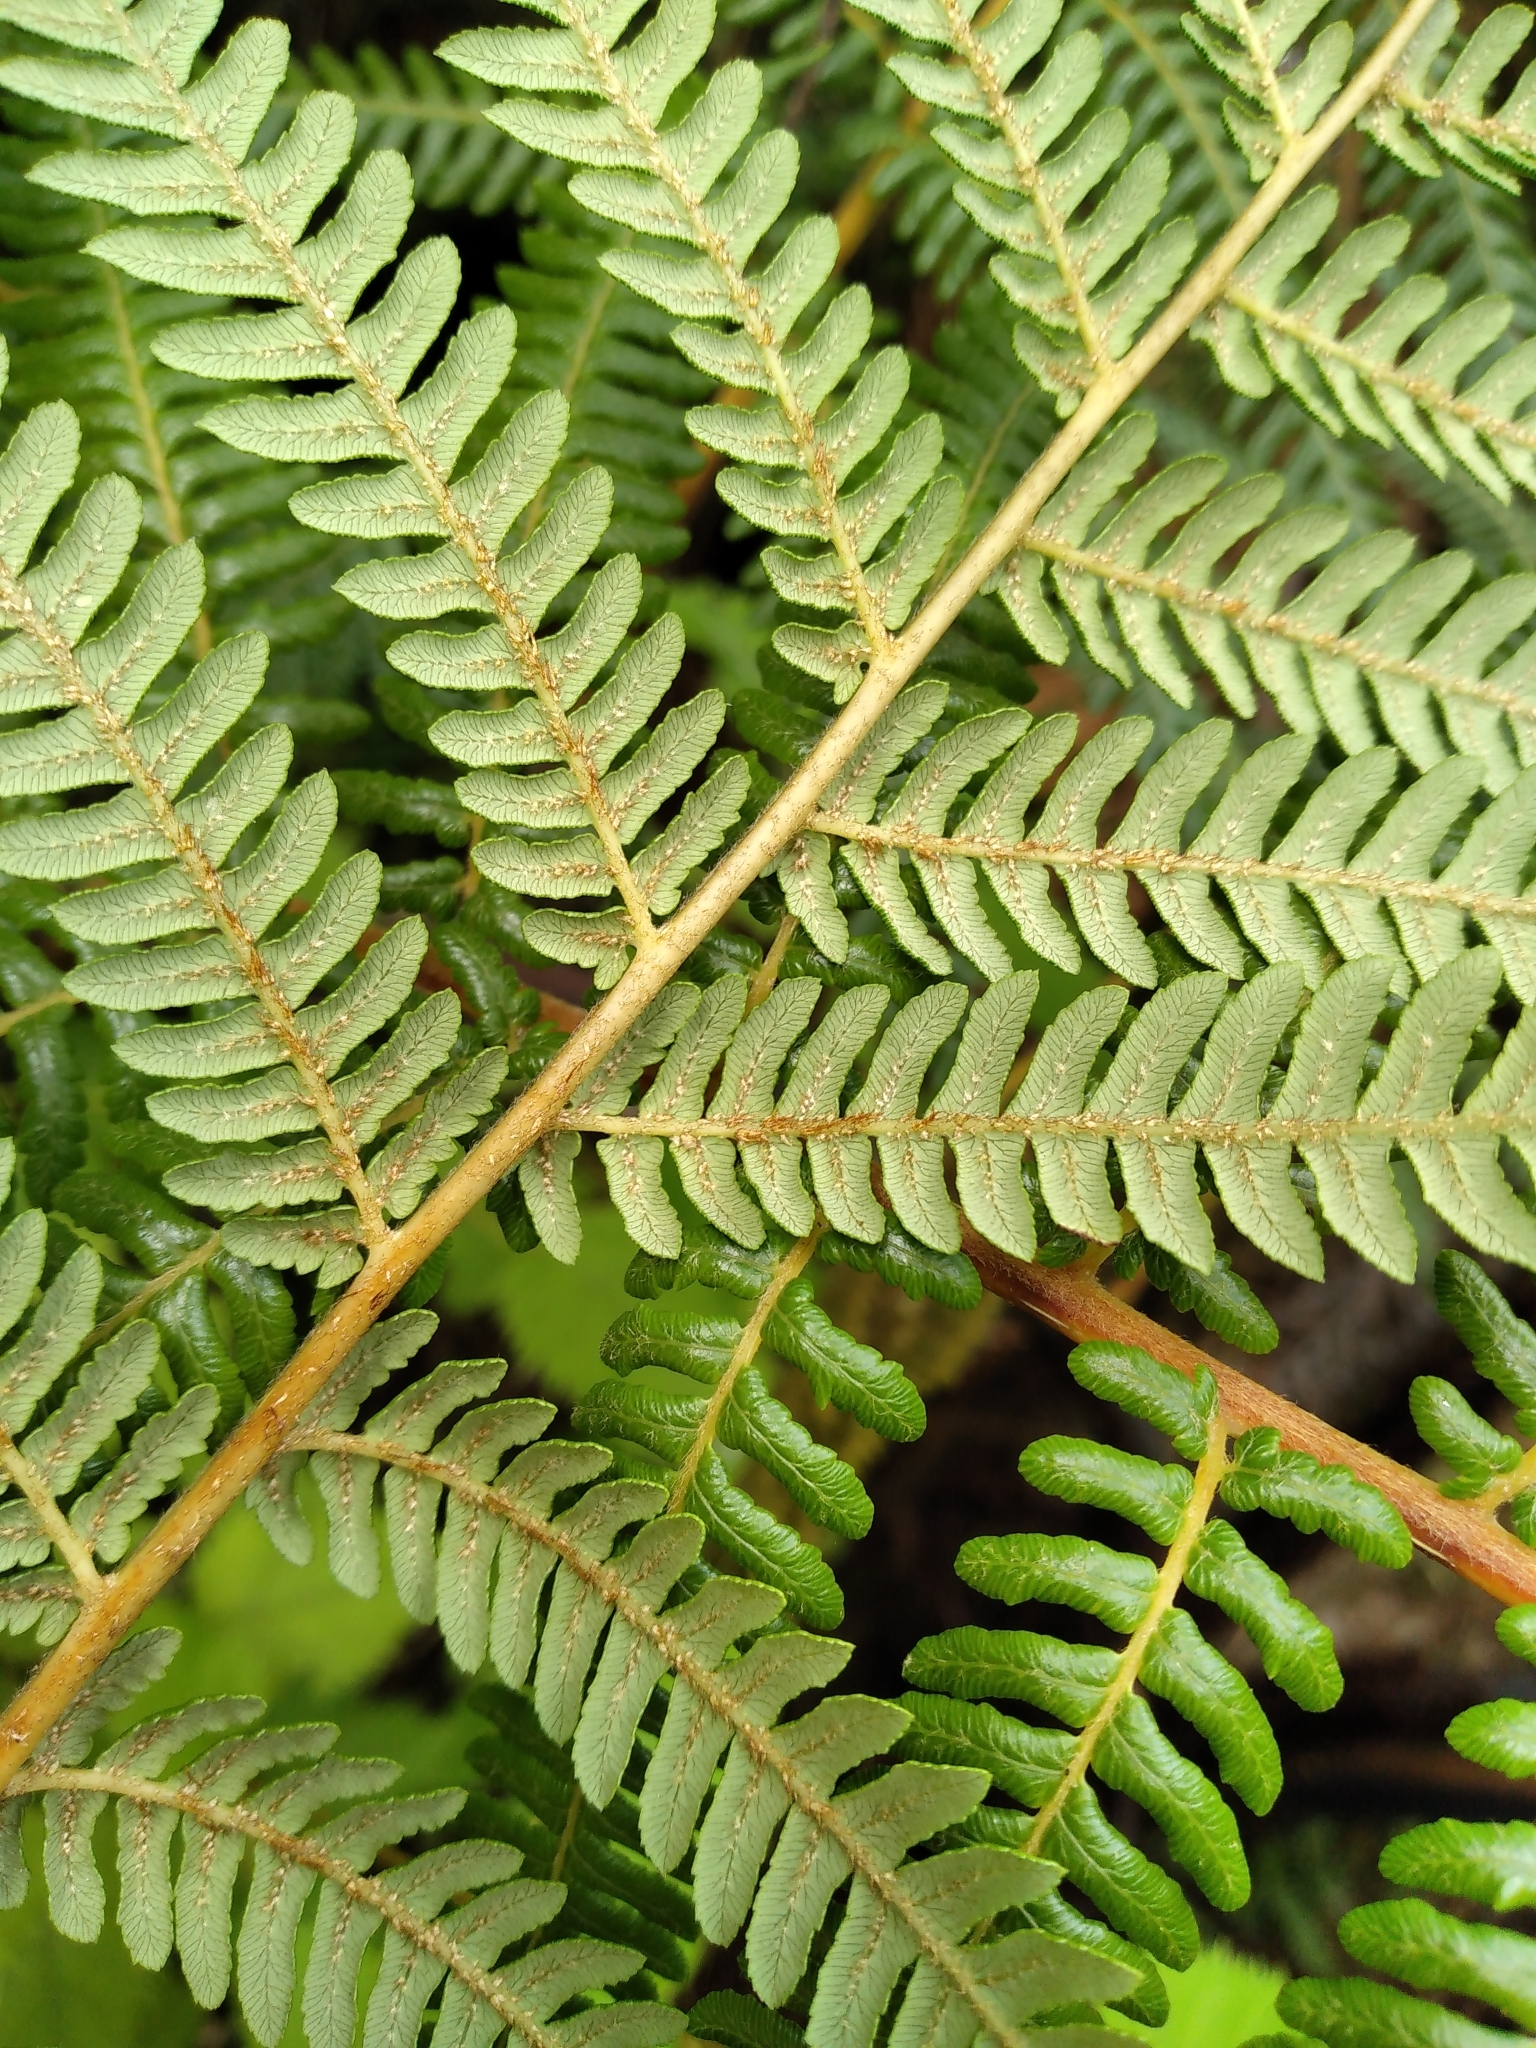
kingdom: Plantae
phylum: Tracheophyta
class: Polypodiopsida
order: Cyatheales
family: Cyatheaceae
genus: Sphaeropteris
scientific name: Sphaeropteris medullaris
